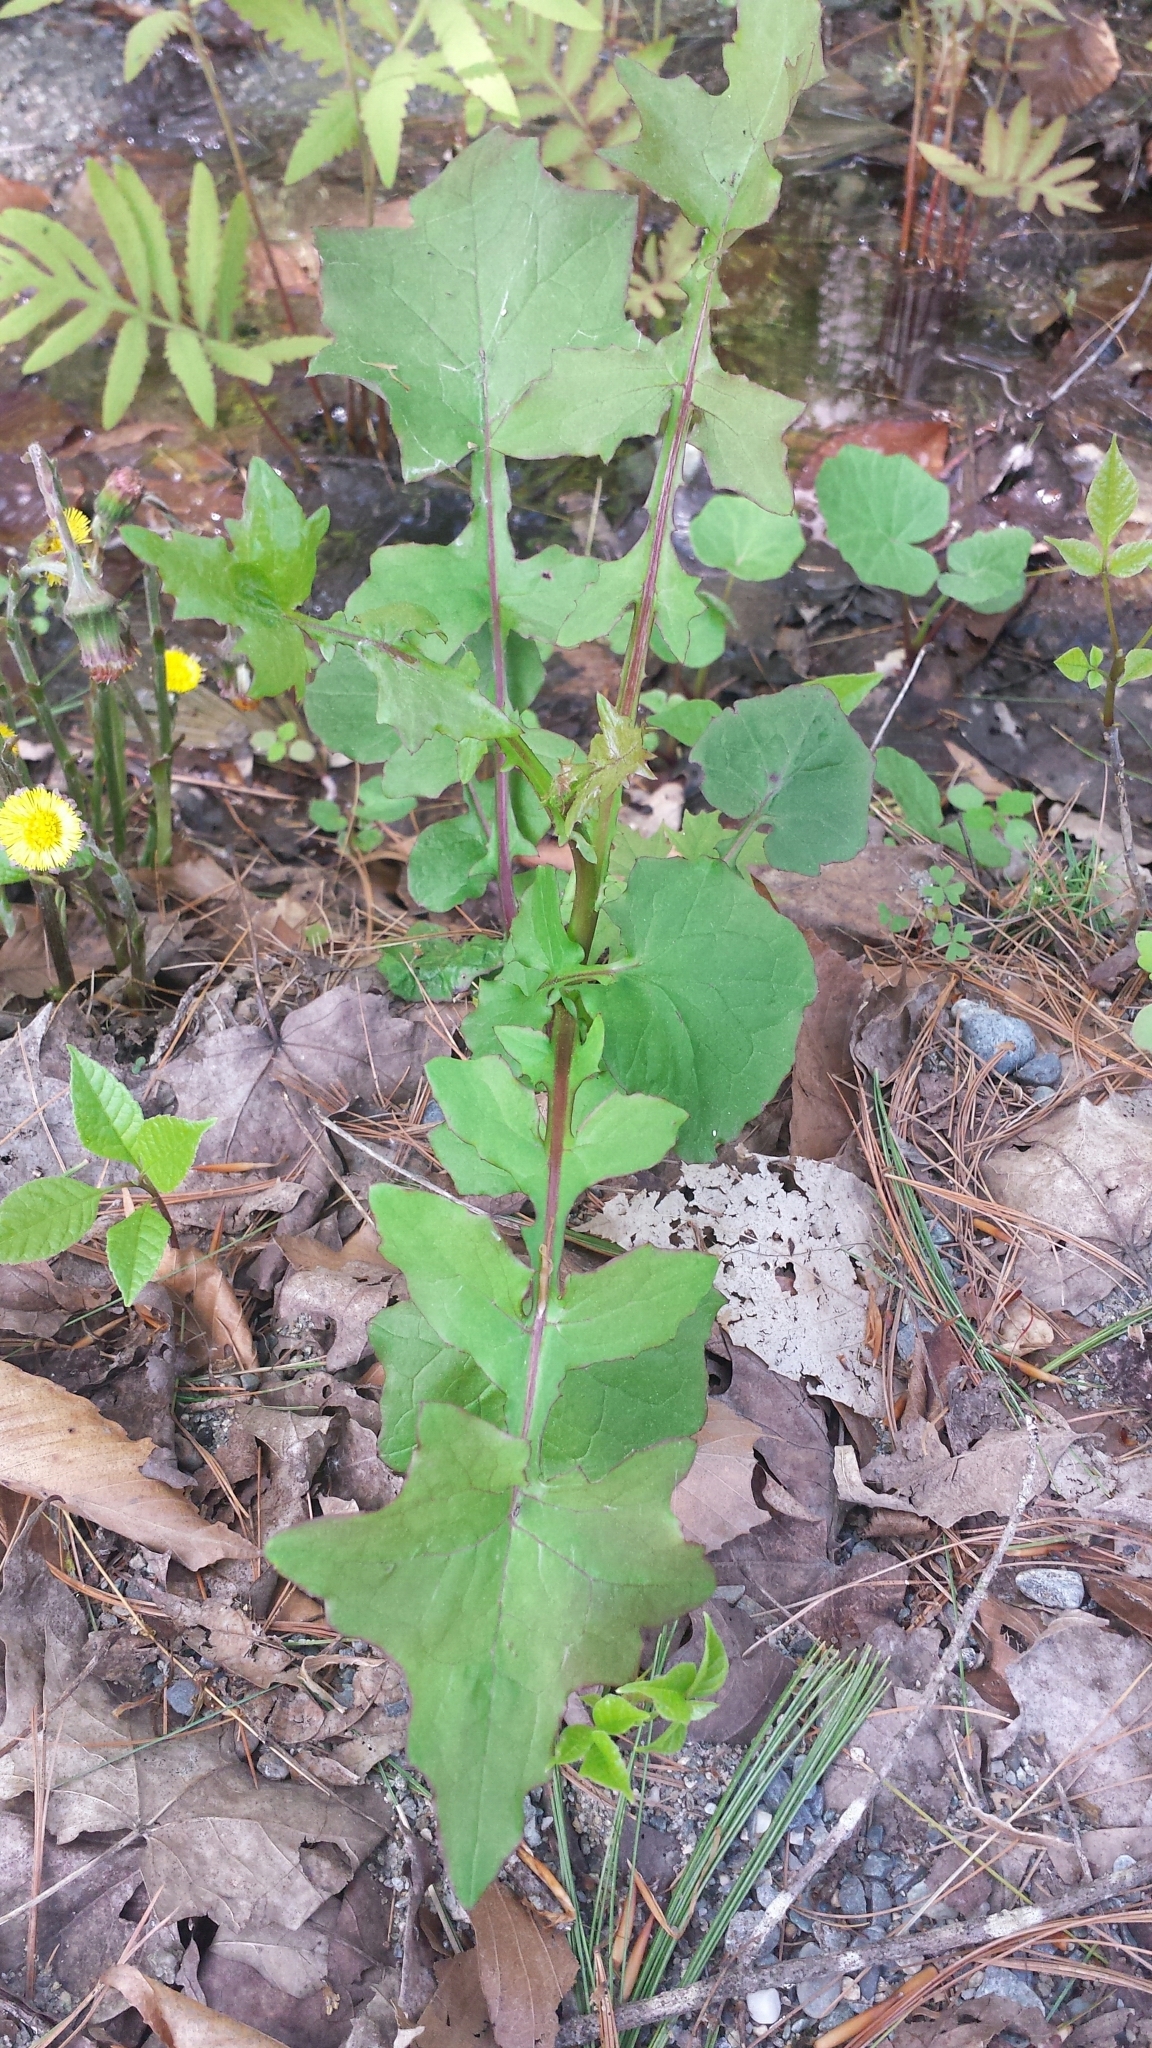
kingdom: Plantae
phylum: Tracheophyta
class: Magnoliopsida
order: Asterales
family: Asteraceae
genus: Mycelis
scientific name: Mycelis muralis
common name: Wall lettuce
